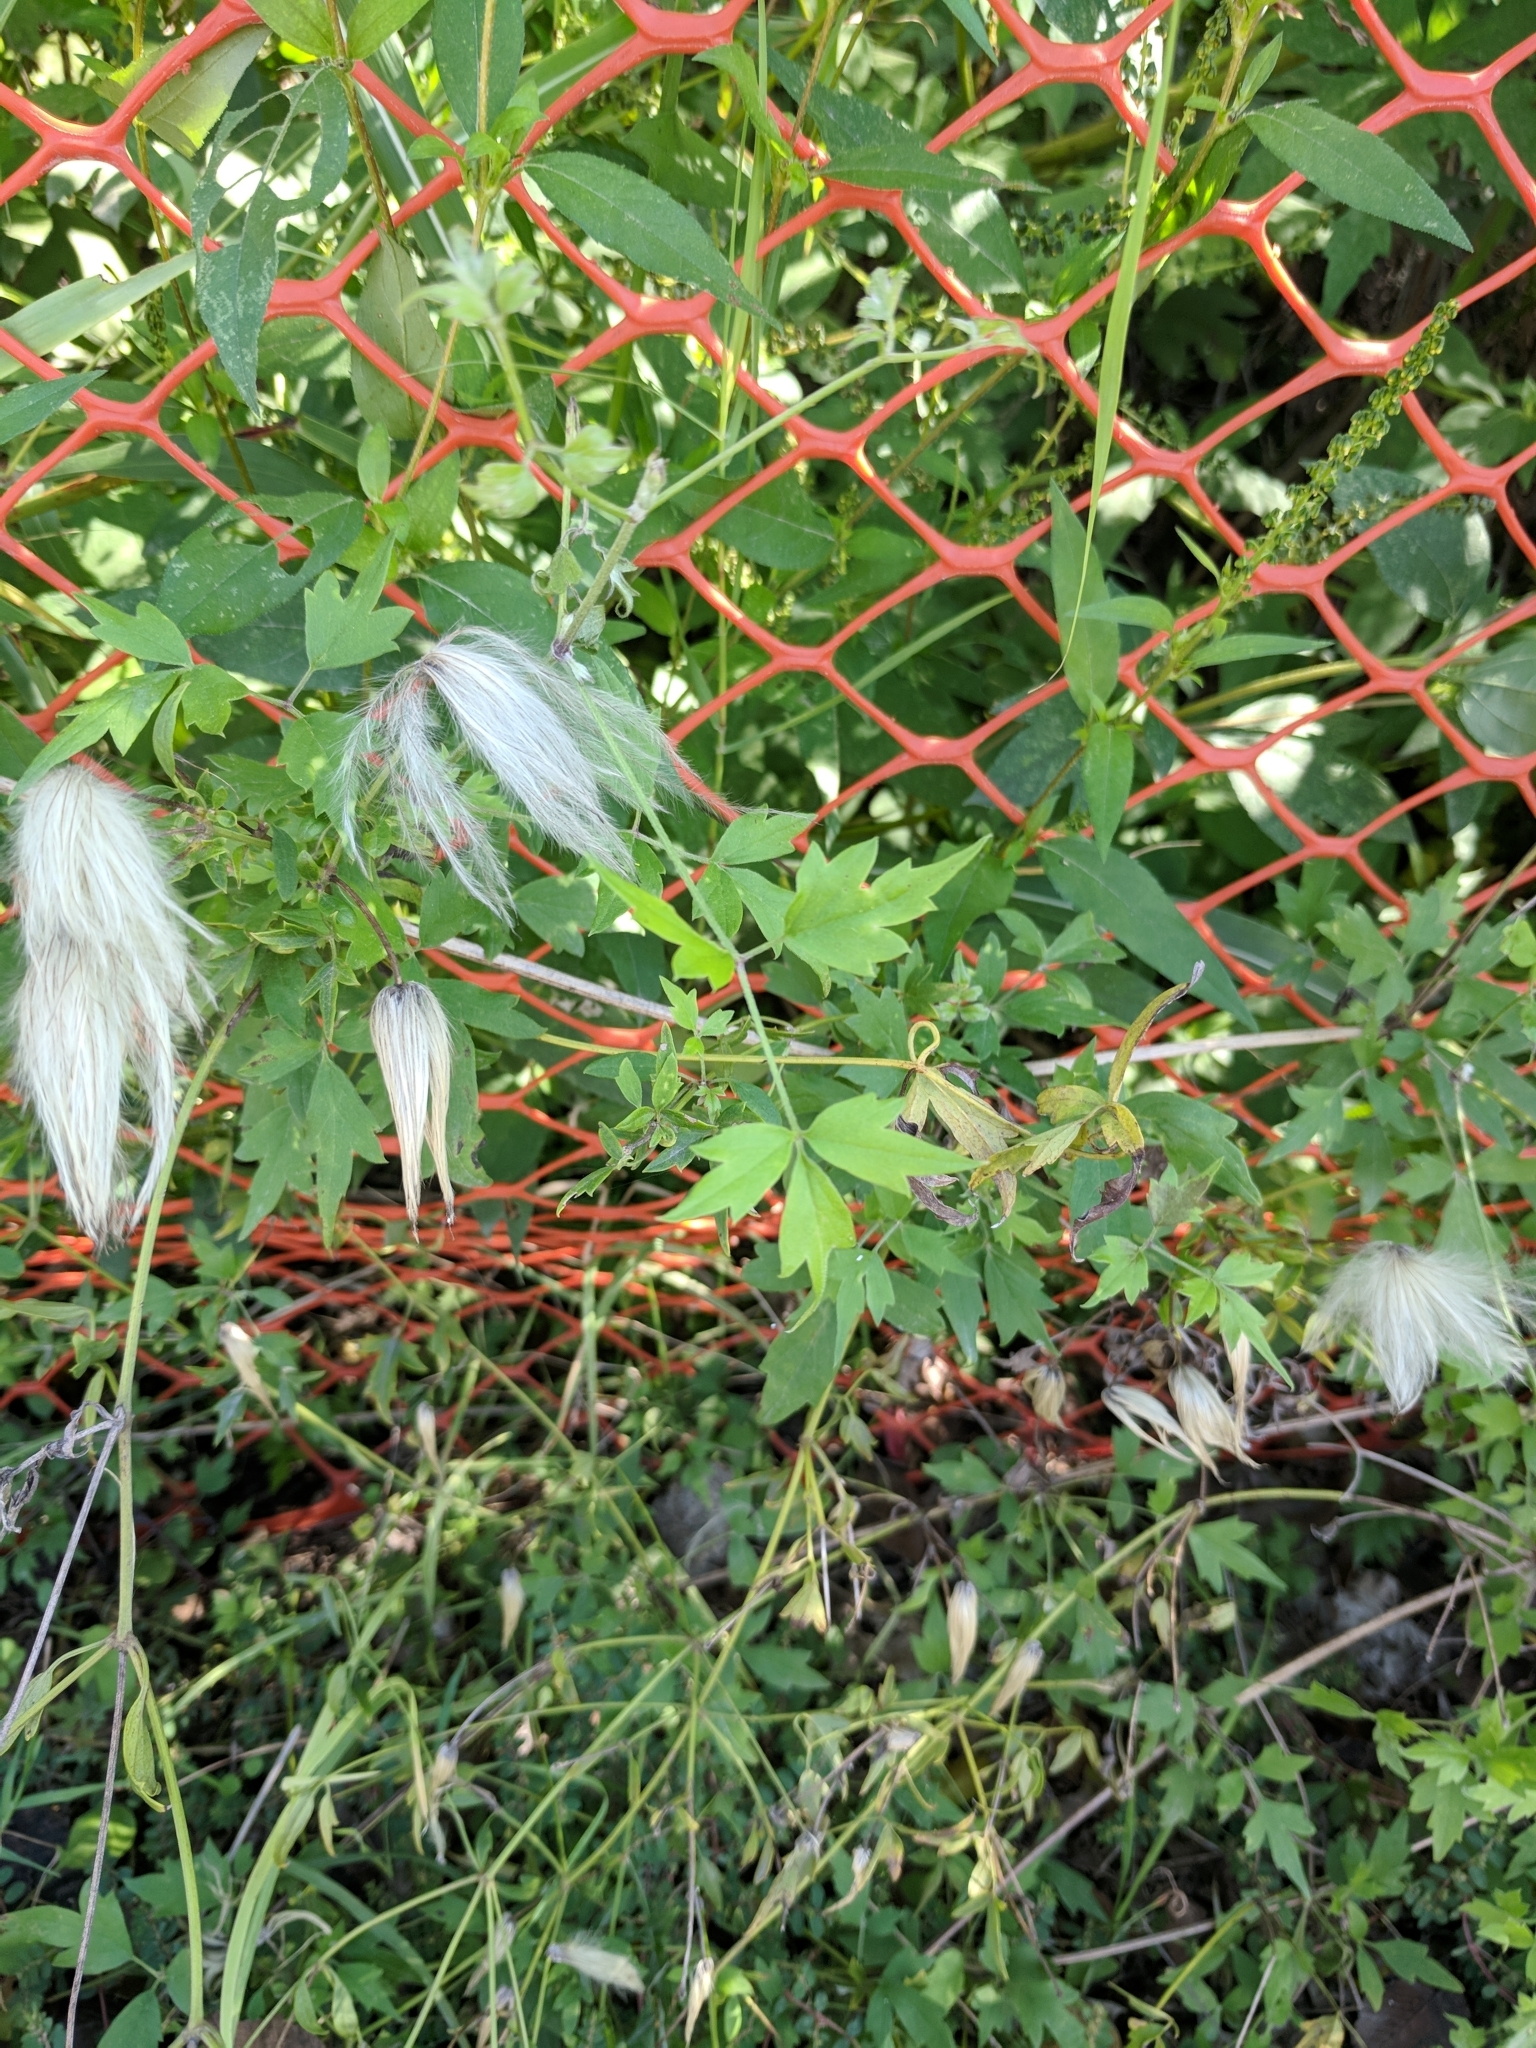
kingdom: Plantae
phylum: Tracheophyta
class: Magnoliopsida
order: Ranunculales
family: Ranunculaceae
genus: Clematis
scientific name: Clematis drummondii
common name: Texas virgin's bower
